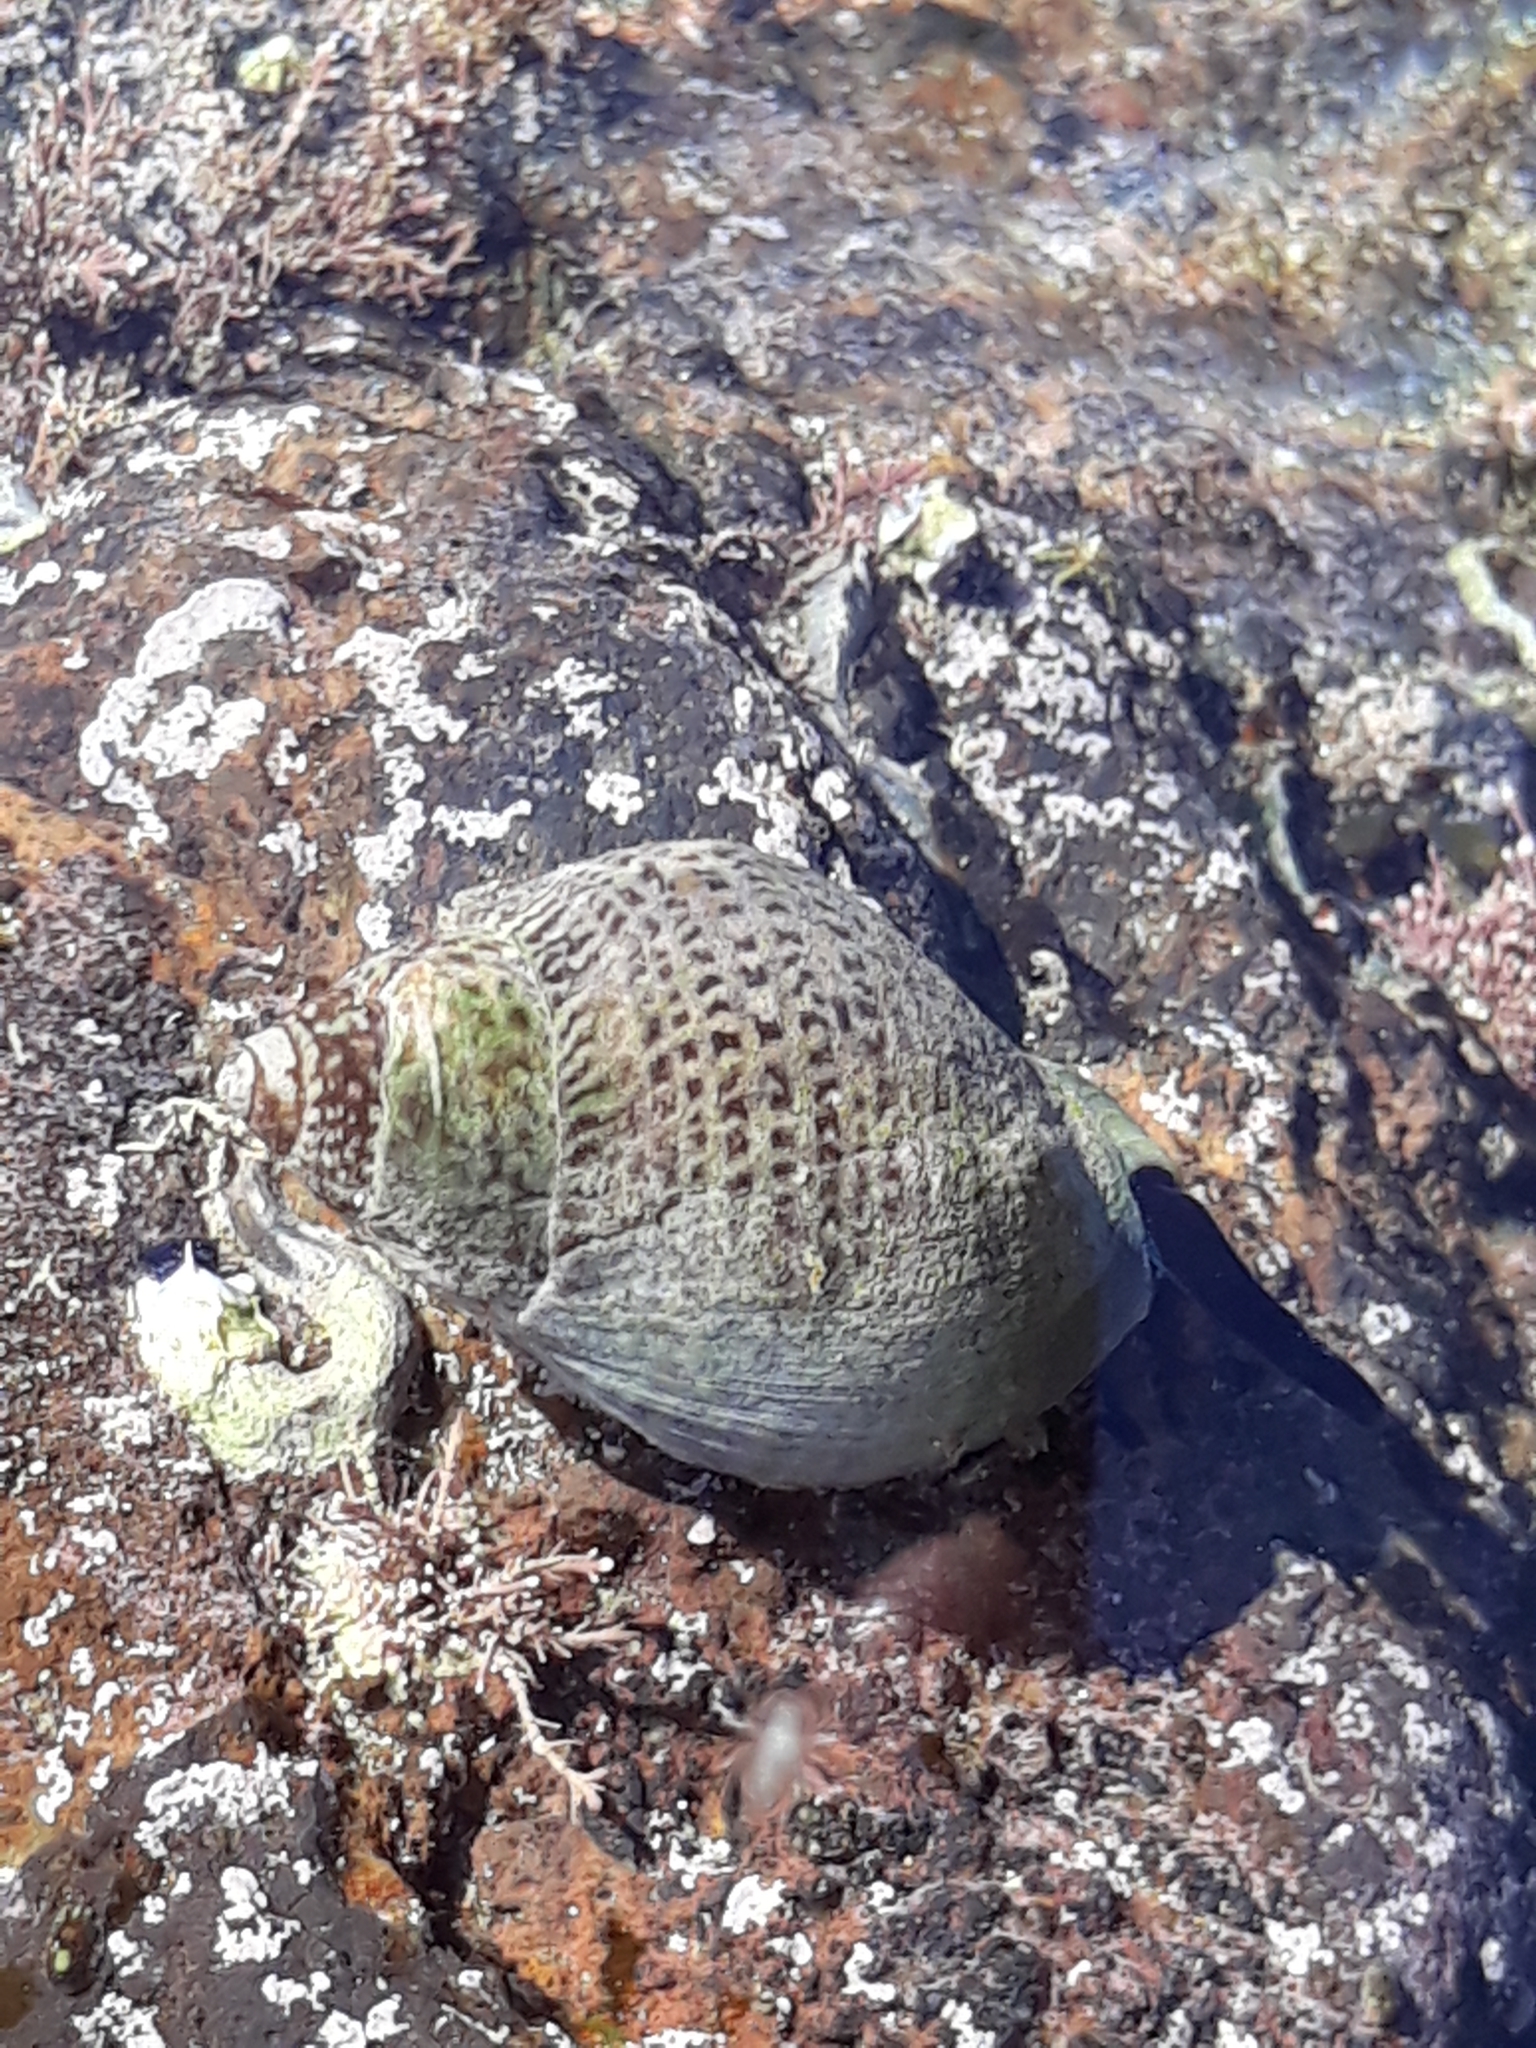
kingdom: Animalia
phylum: Mollusca
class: Gastropoda
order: Neogastropoda
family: Cominellidae
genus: Cominella
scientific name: Cominella maculosa
